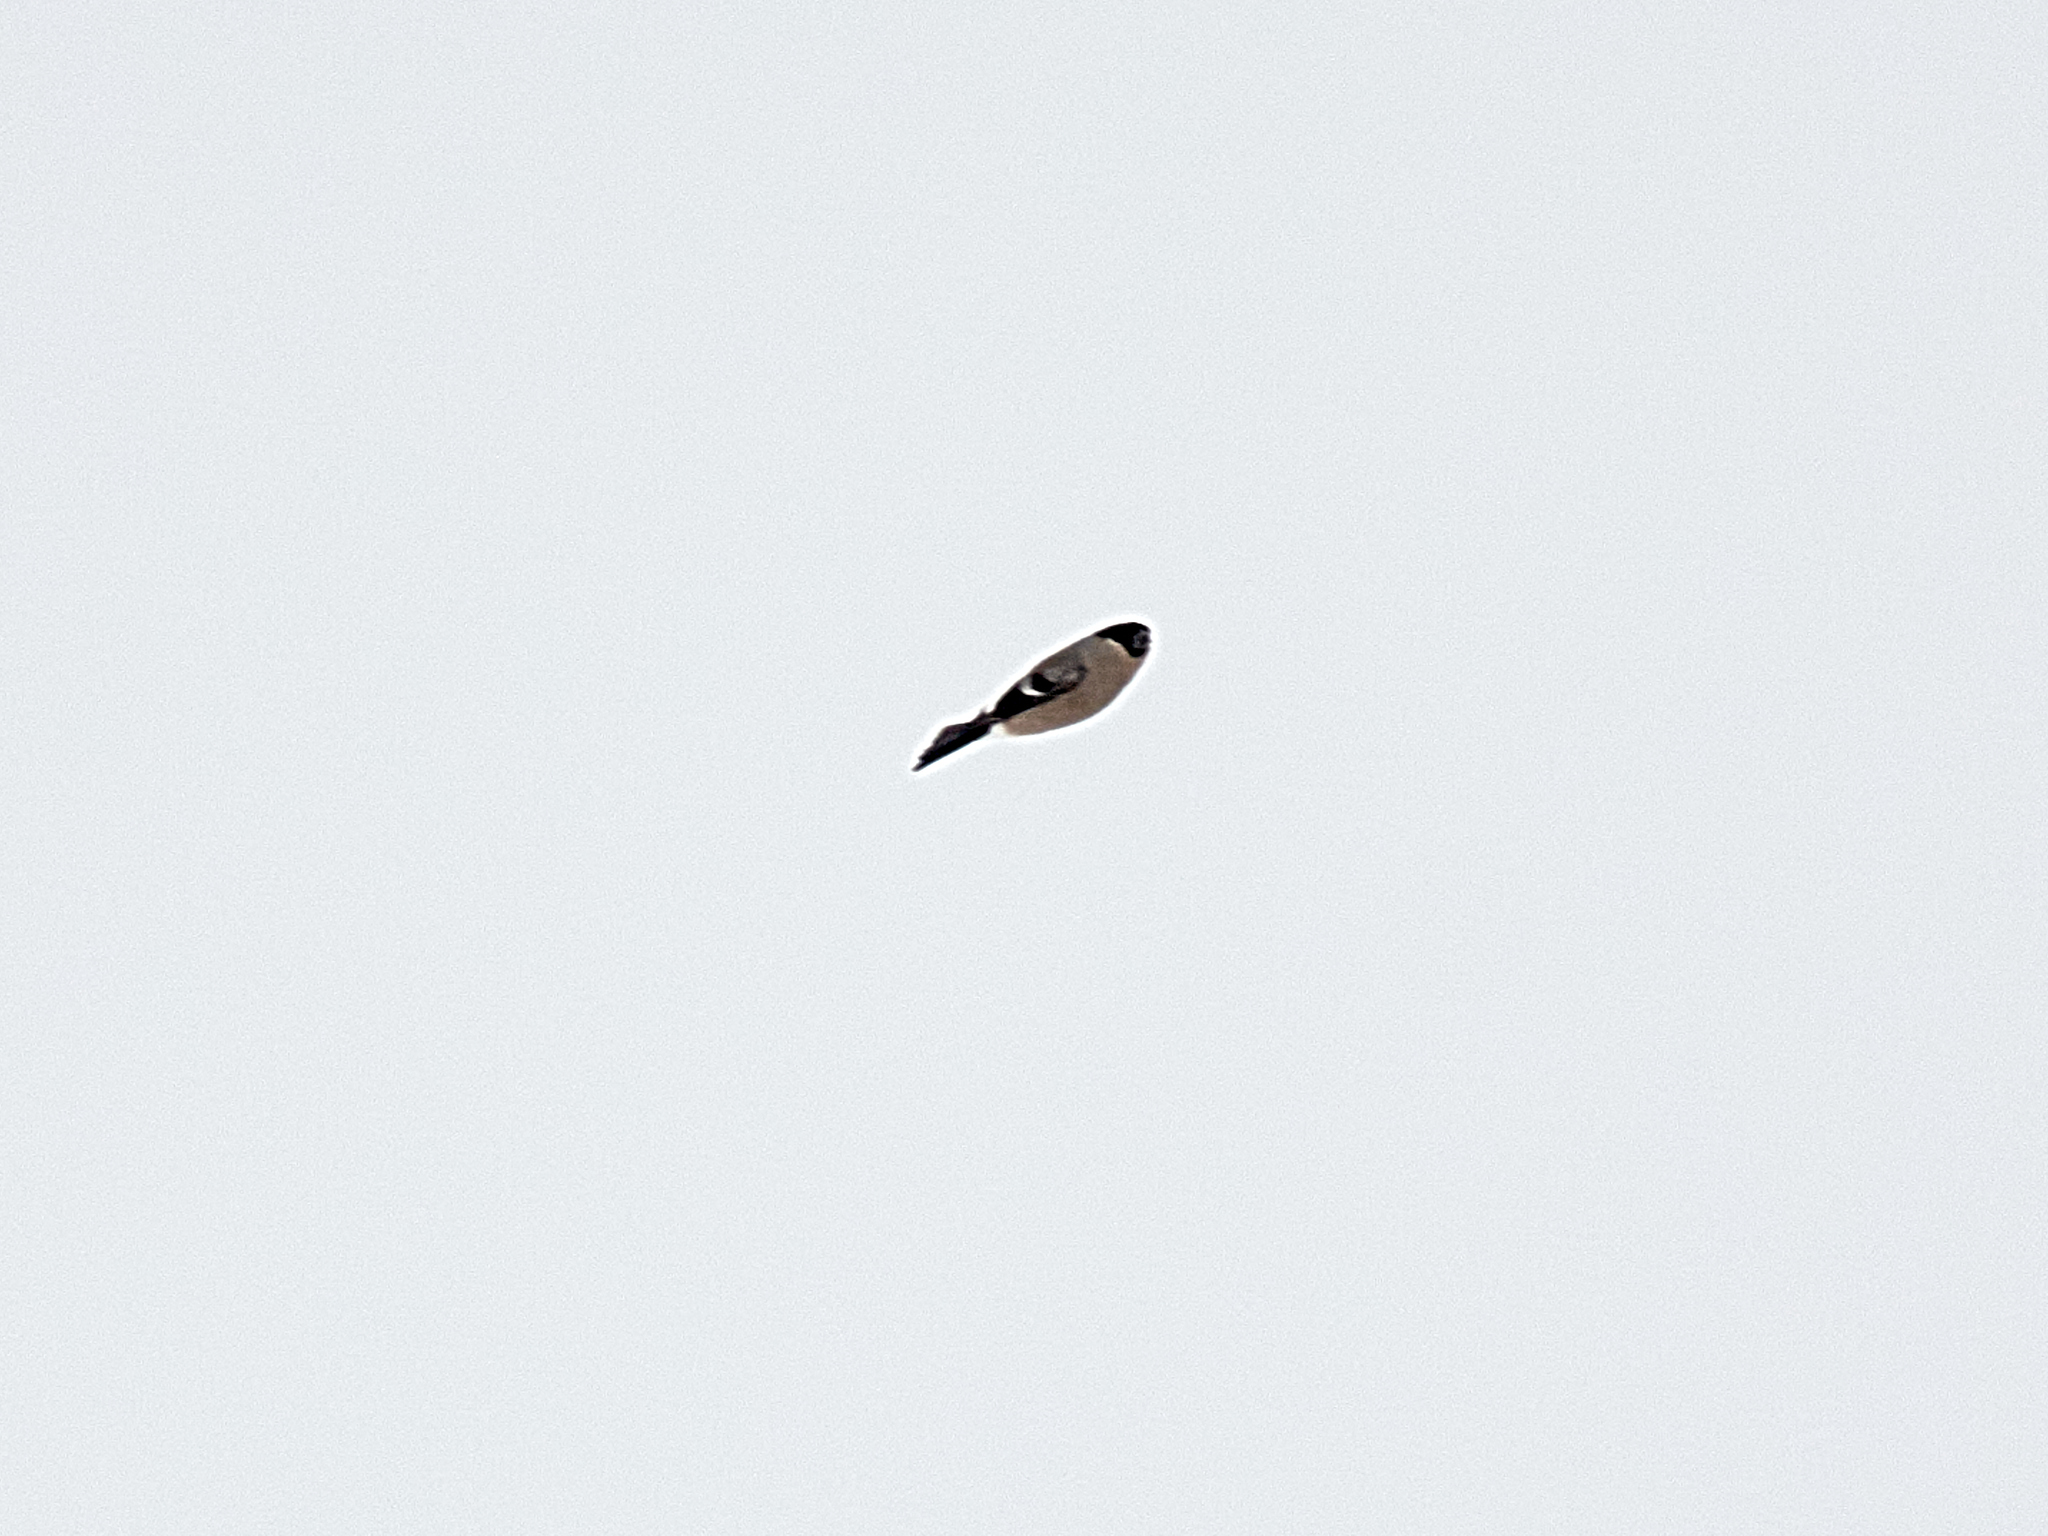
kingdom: Animalia
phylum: Chordata
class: Aves
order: Passeriformes
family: Fringillidae
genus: Pyrrhula
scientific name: Pyrrhula pyrrhula
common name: Eurasian bullfinch
